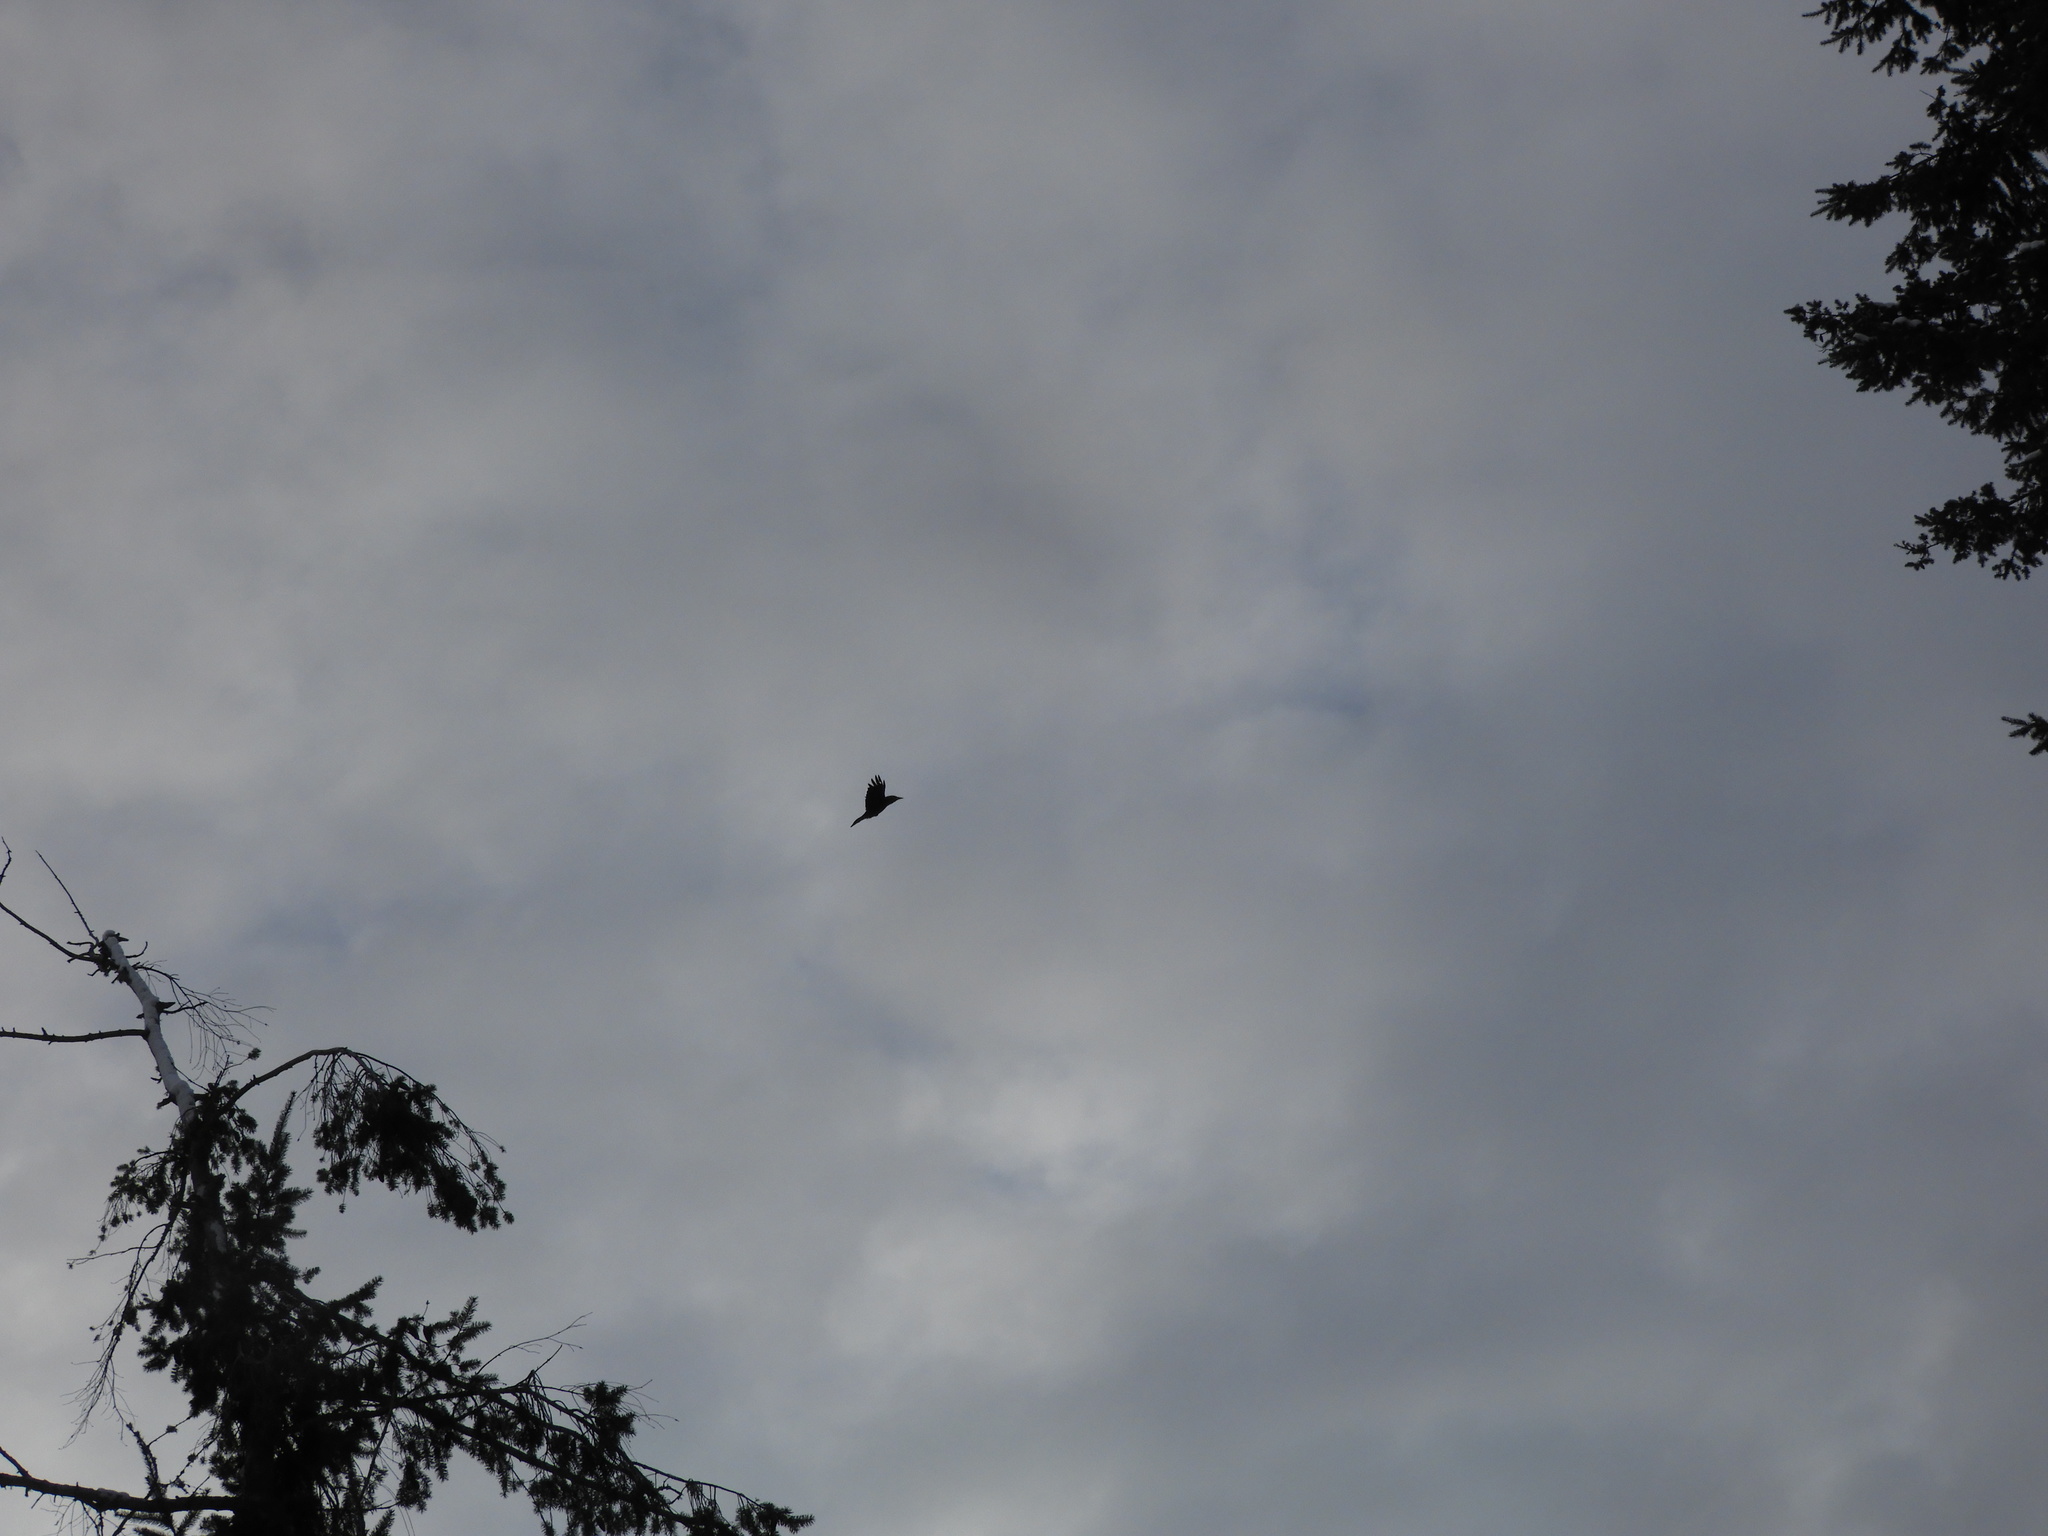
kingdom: Animalia
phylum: Chordata
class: Aves
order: Passeriformes
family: Corvidae
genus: Corvus
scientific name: Corvus corax
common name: Common raven
